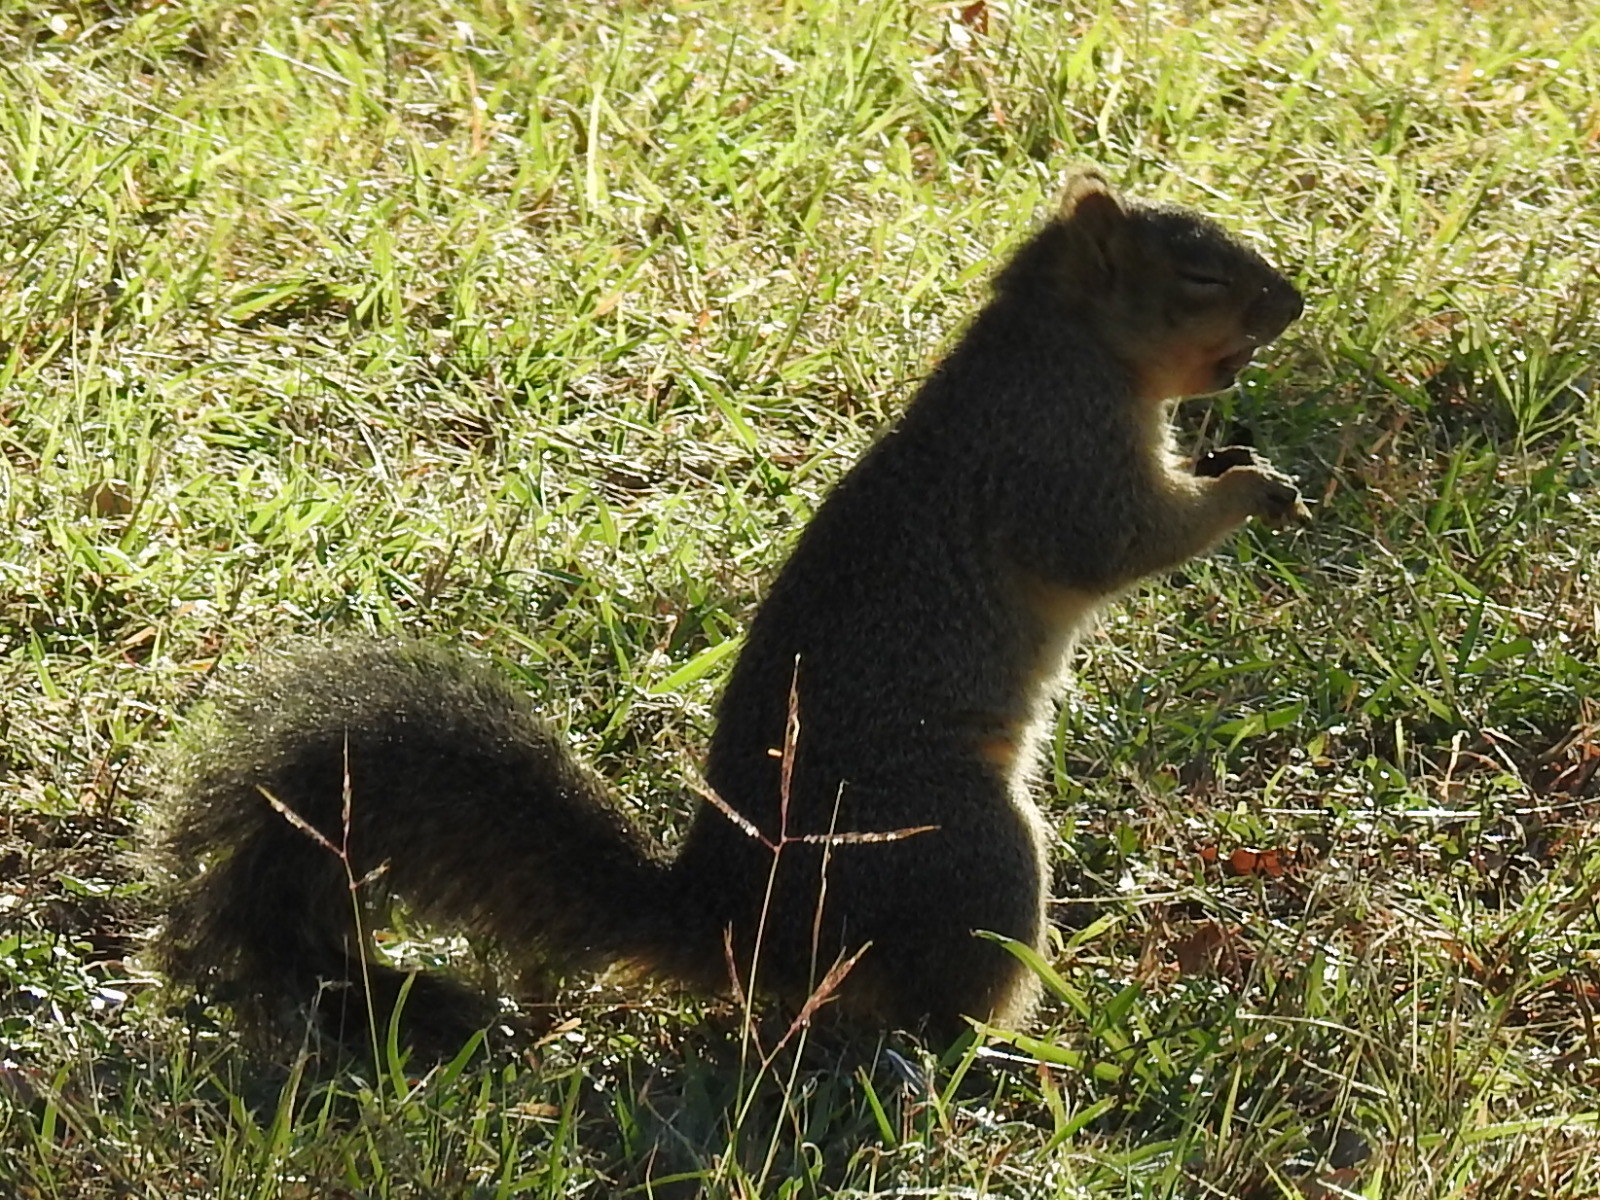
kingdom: Animalia
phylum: Chordata
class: Mammalia
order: Rodentia
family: Sciuridae
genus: Sciurus
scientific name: Sciurus niger
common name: Fox squirrel
